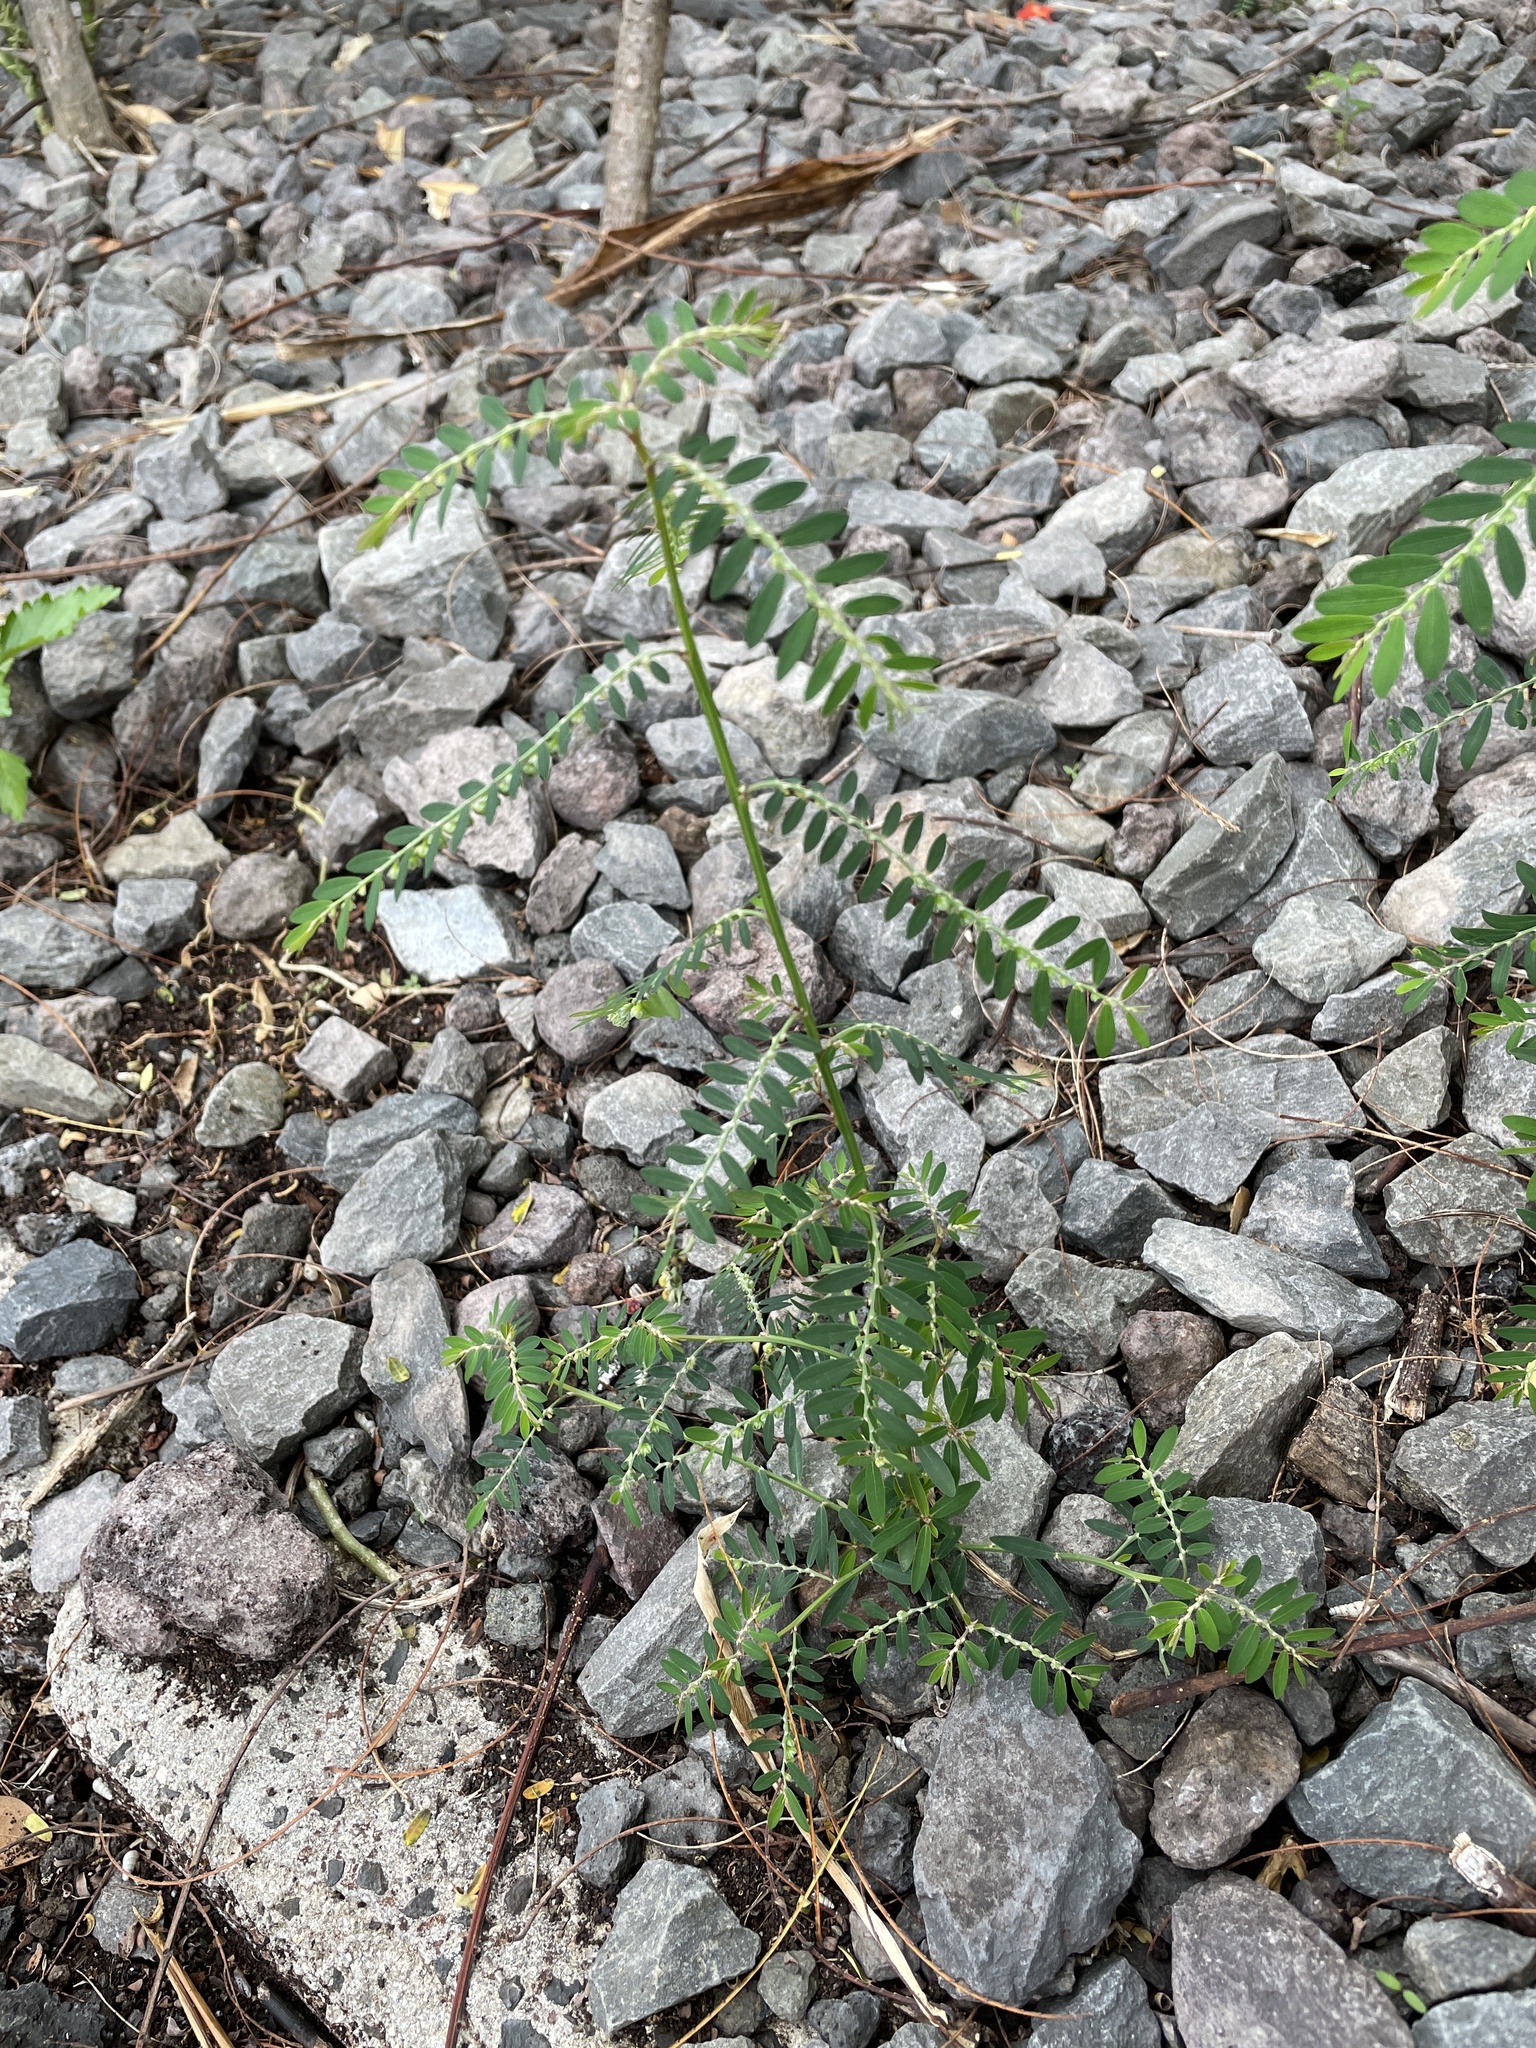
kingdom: Plantae
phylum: Tracheophyta
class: Magnoliopsida
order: Malpighiales
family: Phyllanthaceae
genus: Phyllanthus
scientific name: Phyllanthus debilis
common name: Niruri
